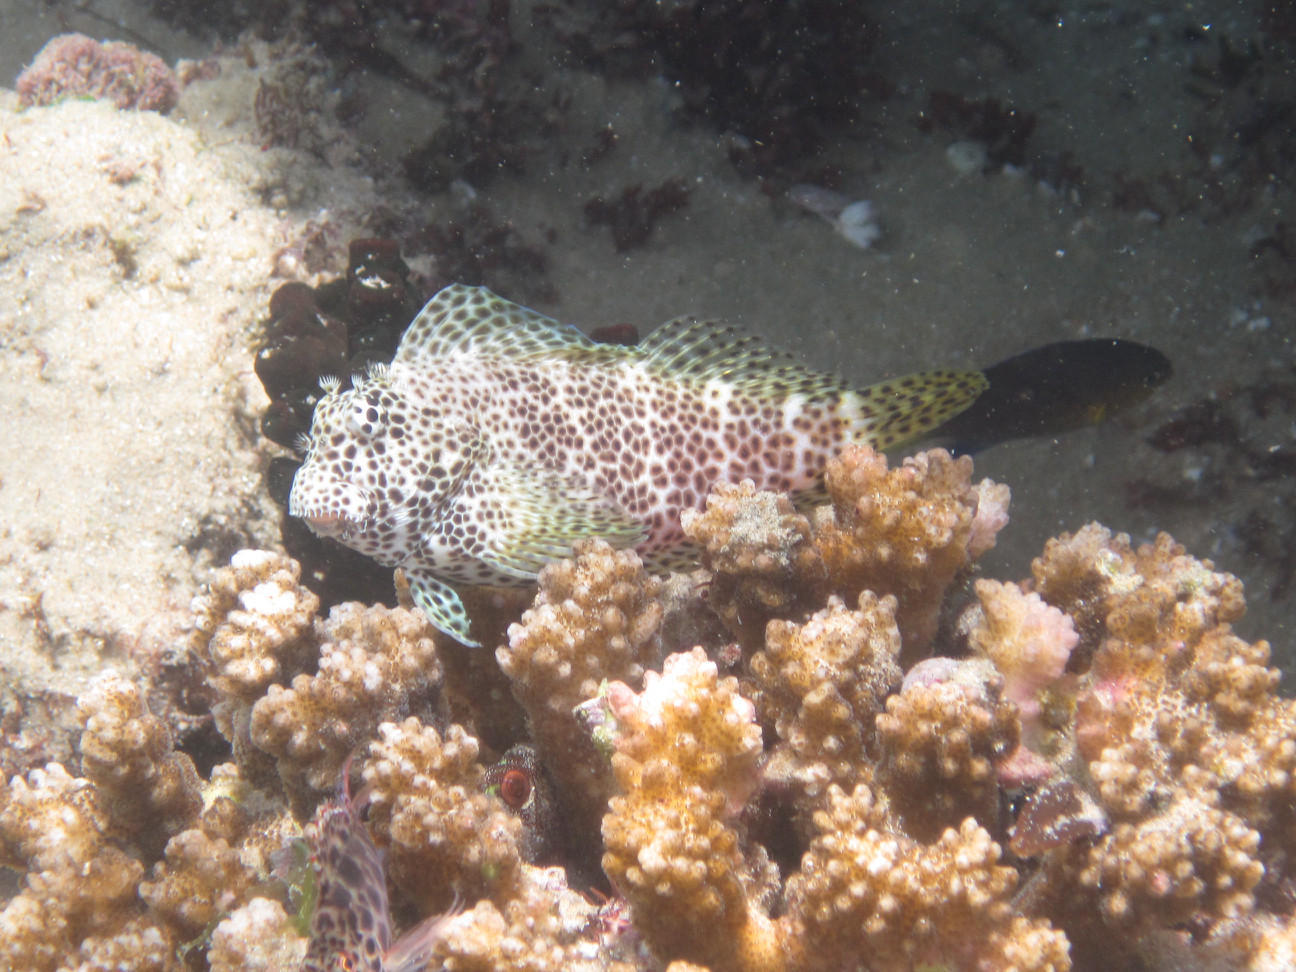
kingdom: Animalia
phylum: Chordata
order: Perciformes
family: Blenniidae
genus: Exallias
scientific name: Exallias brevis
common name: Leopard blenny
